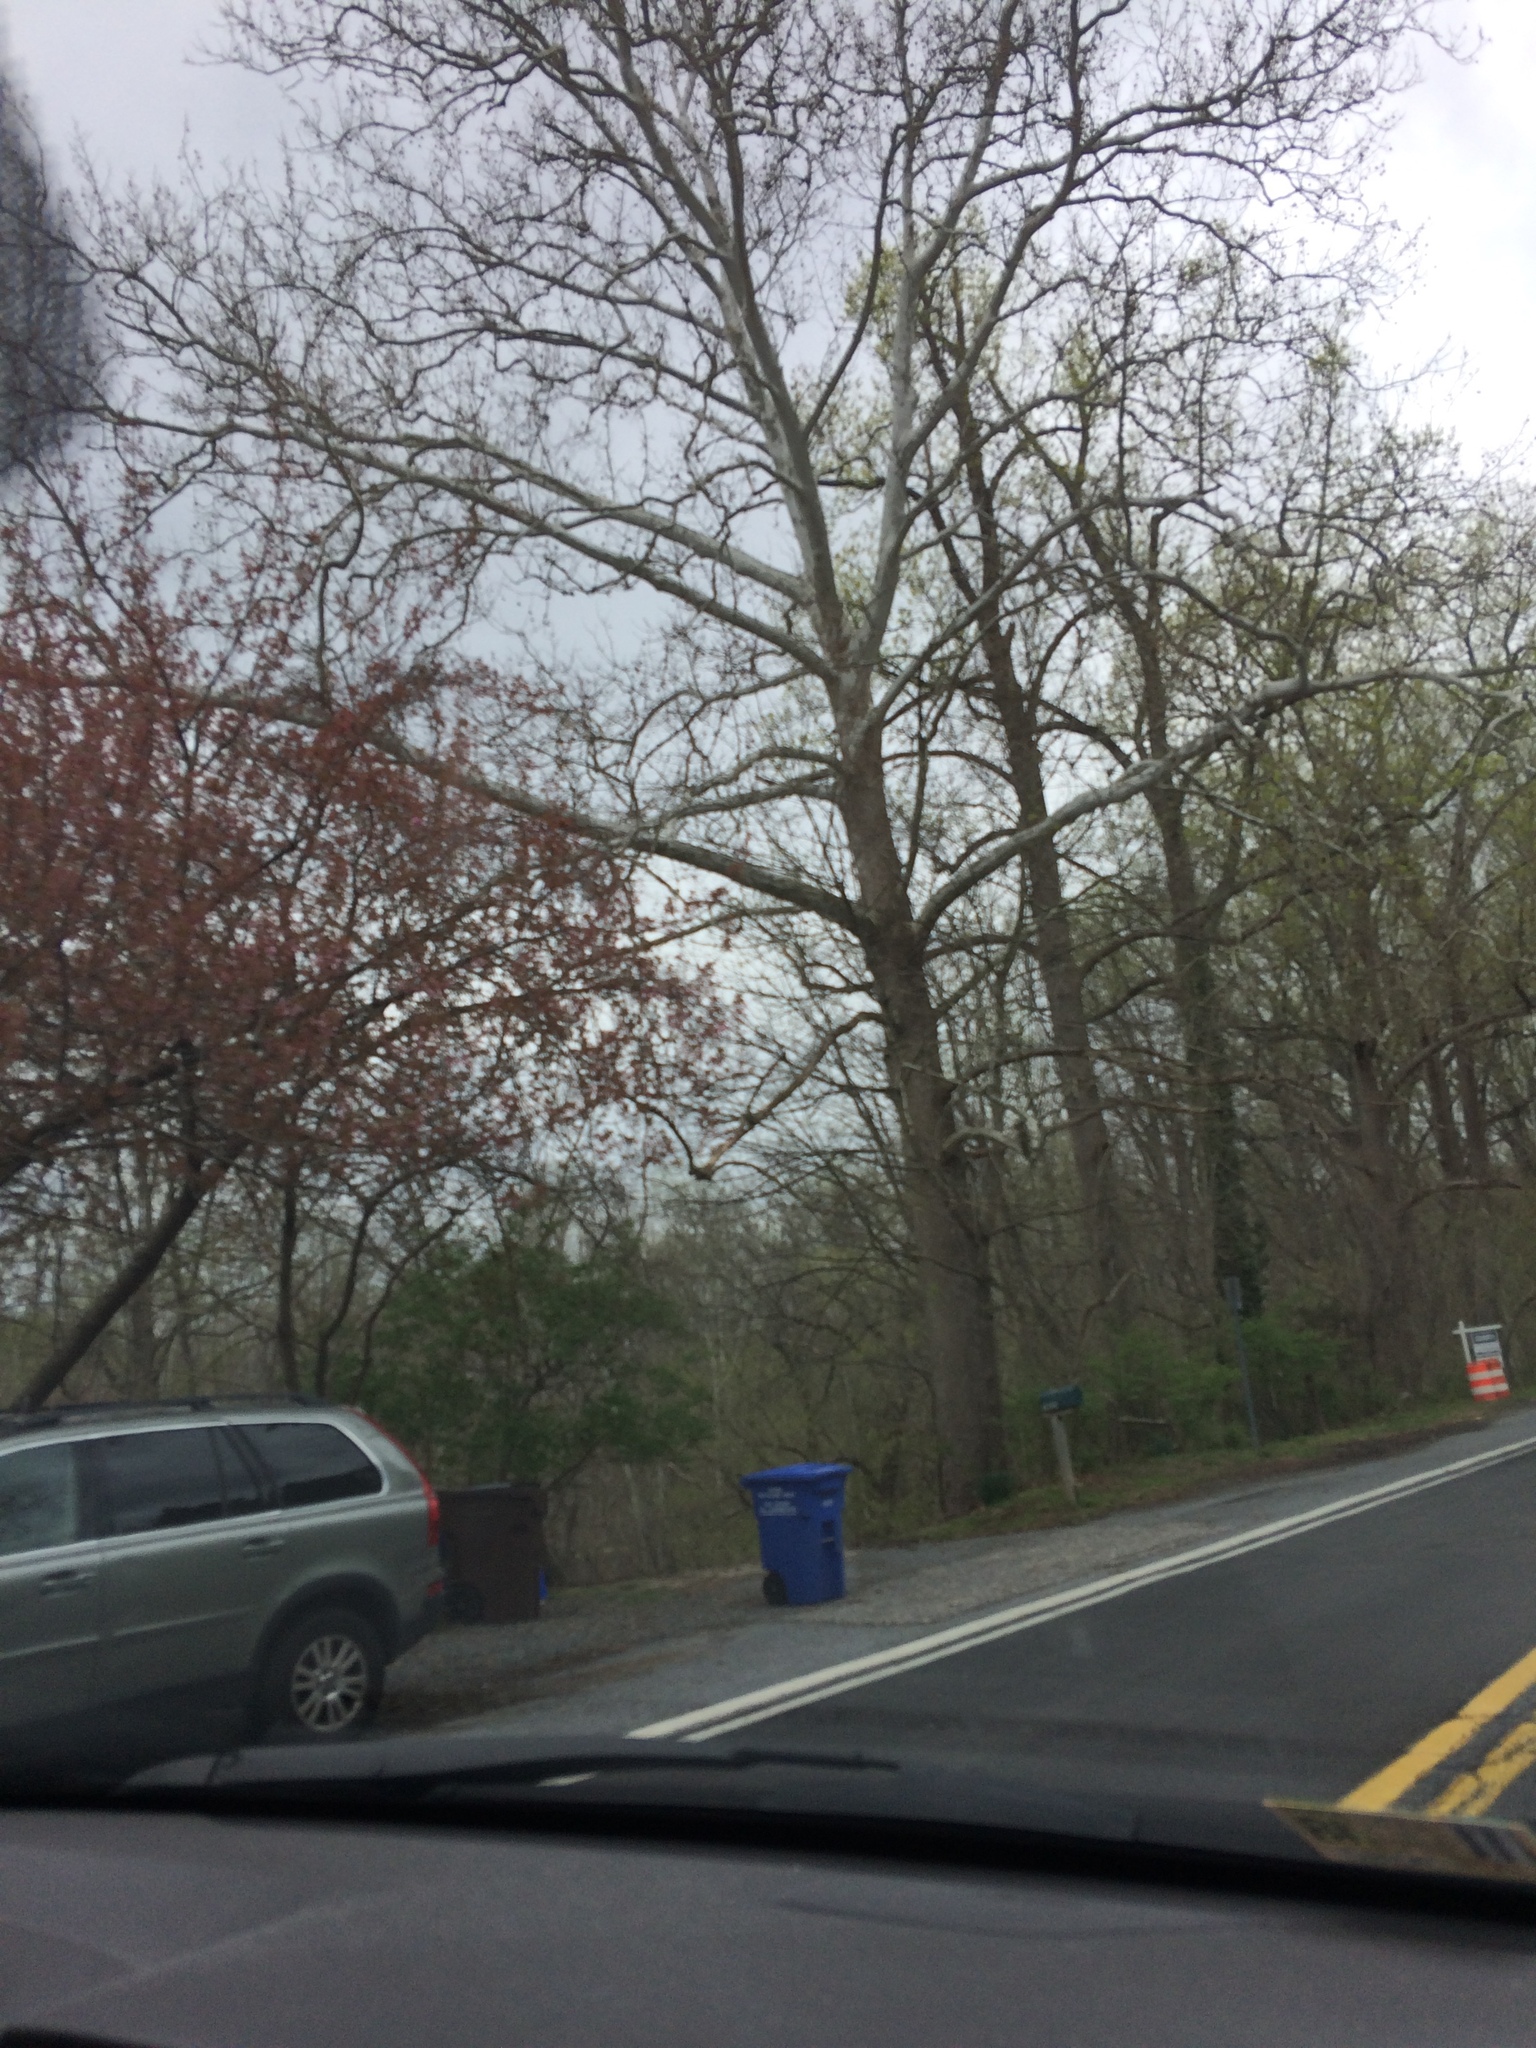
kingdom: Plantae
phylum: Tracheophyta
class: Magnoliopsida
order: Proteales
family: Platanaceae
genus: Platanus
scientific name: Platanus occidentalis
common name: American sycamore
